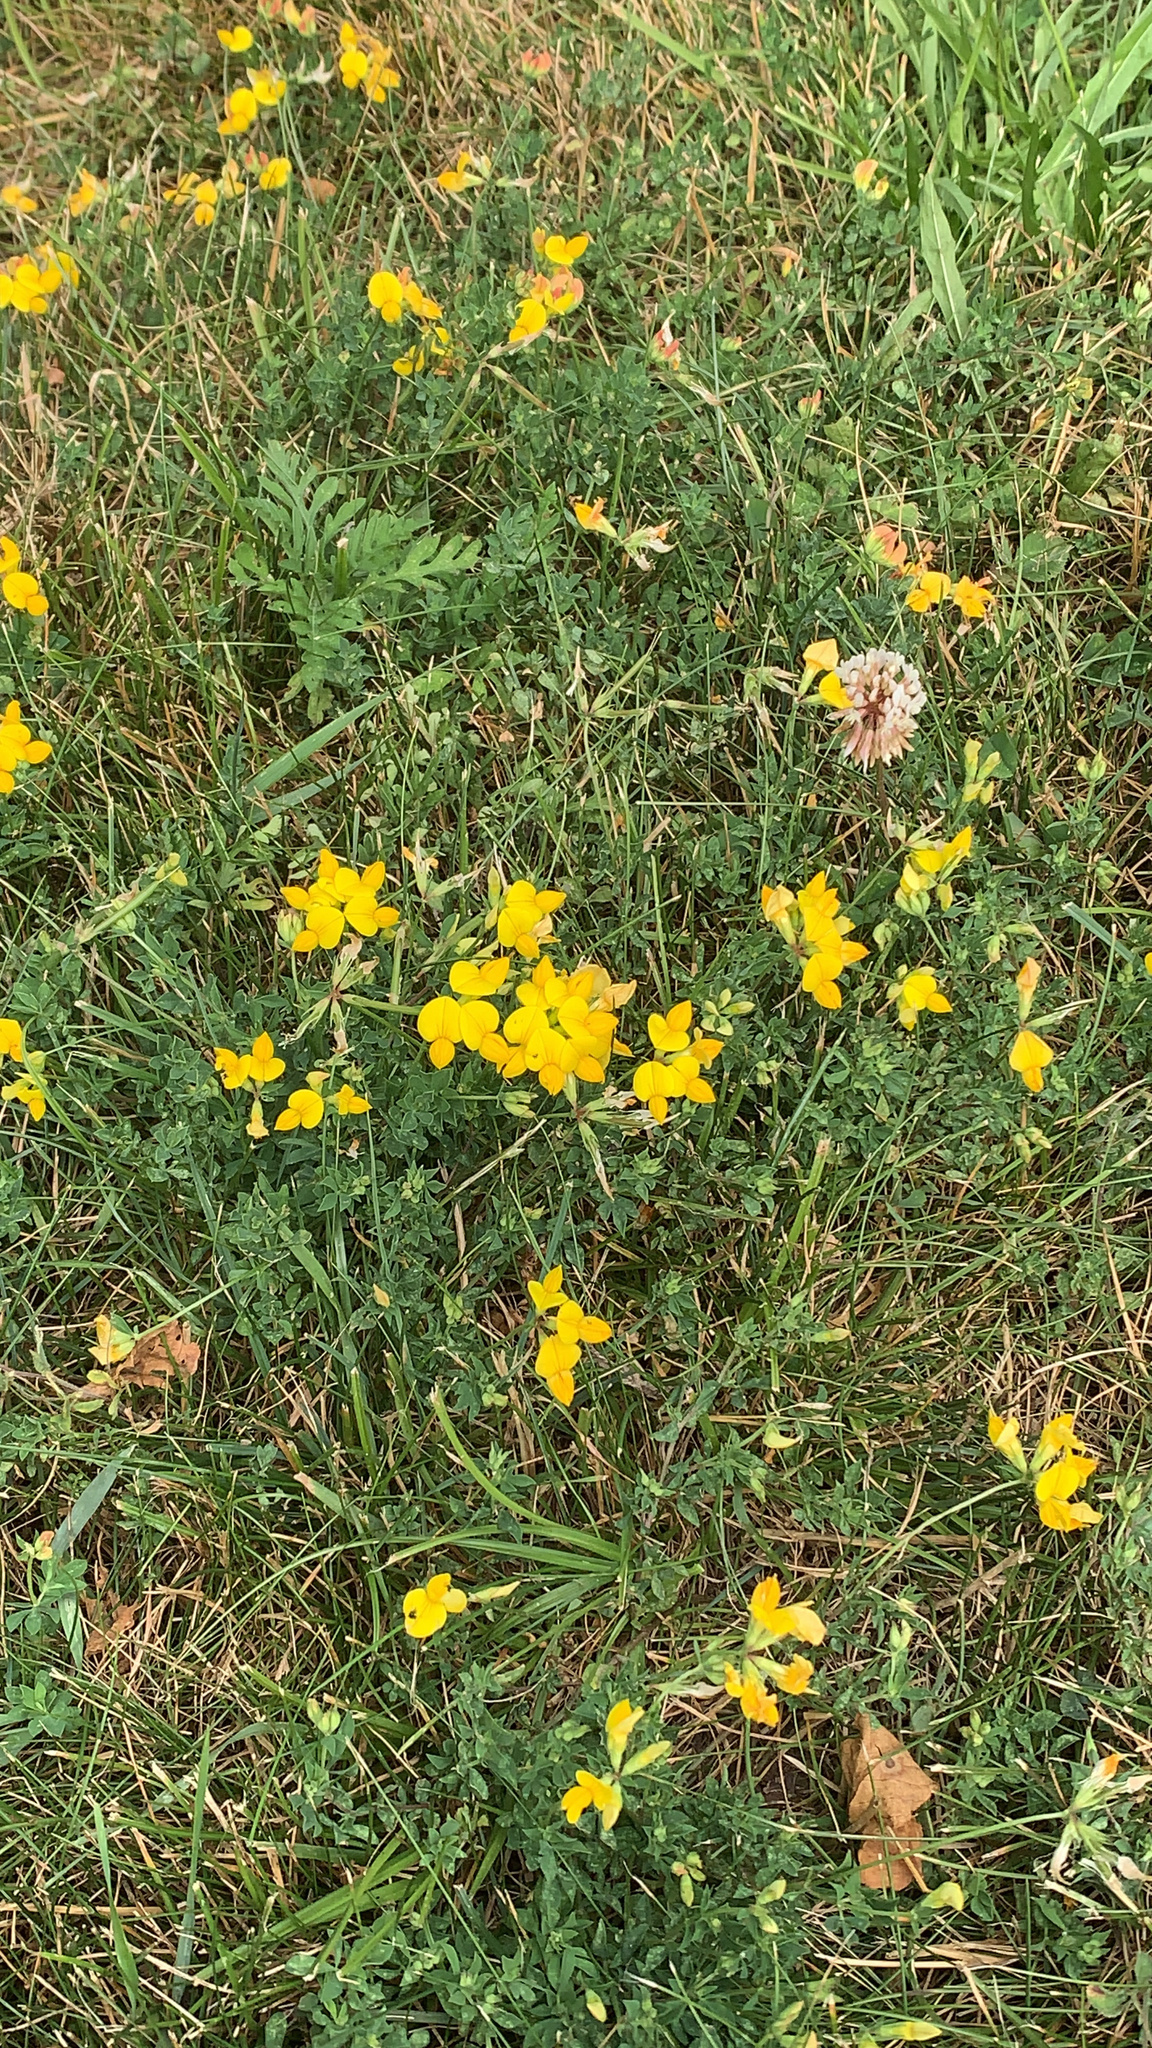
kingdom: Plantae
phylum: Tracheophyta
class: Magnoliopsida
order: Fabales
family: Fabaceae
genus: Lotus
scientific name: Lotus corniculatus
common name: Common bird's-foot-trefoil
